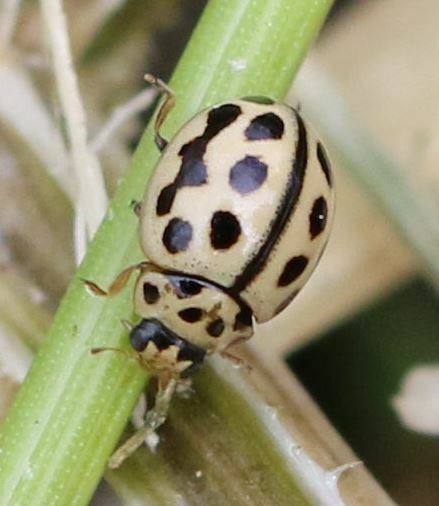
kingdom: Animalia
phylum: Arthropoda
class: Insecta
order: Coleoptera
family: Coccinellidae
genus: Tytthaspis
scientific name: Tytthaspis sedecimpunctata
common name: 16-spot ladybird
